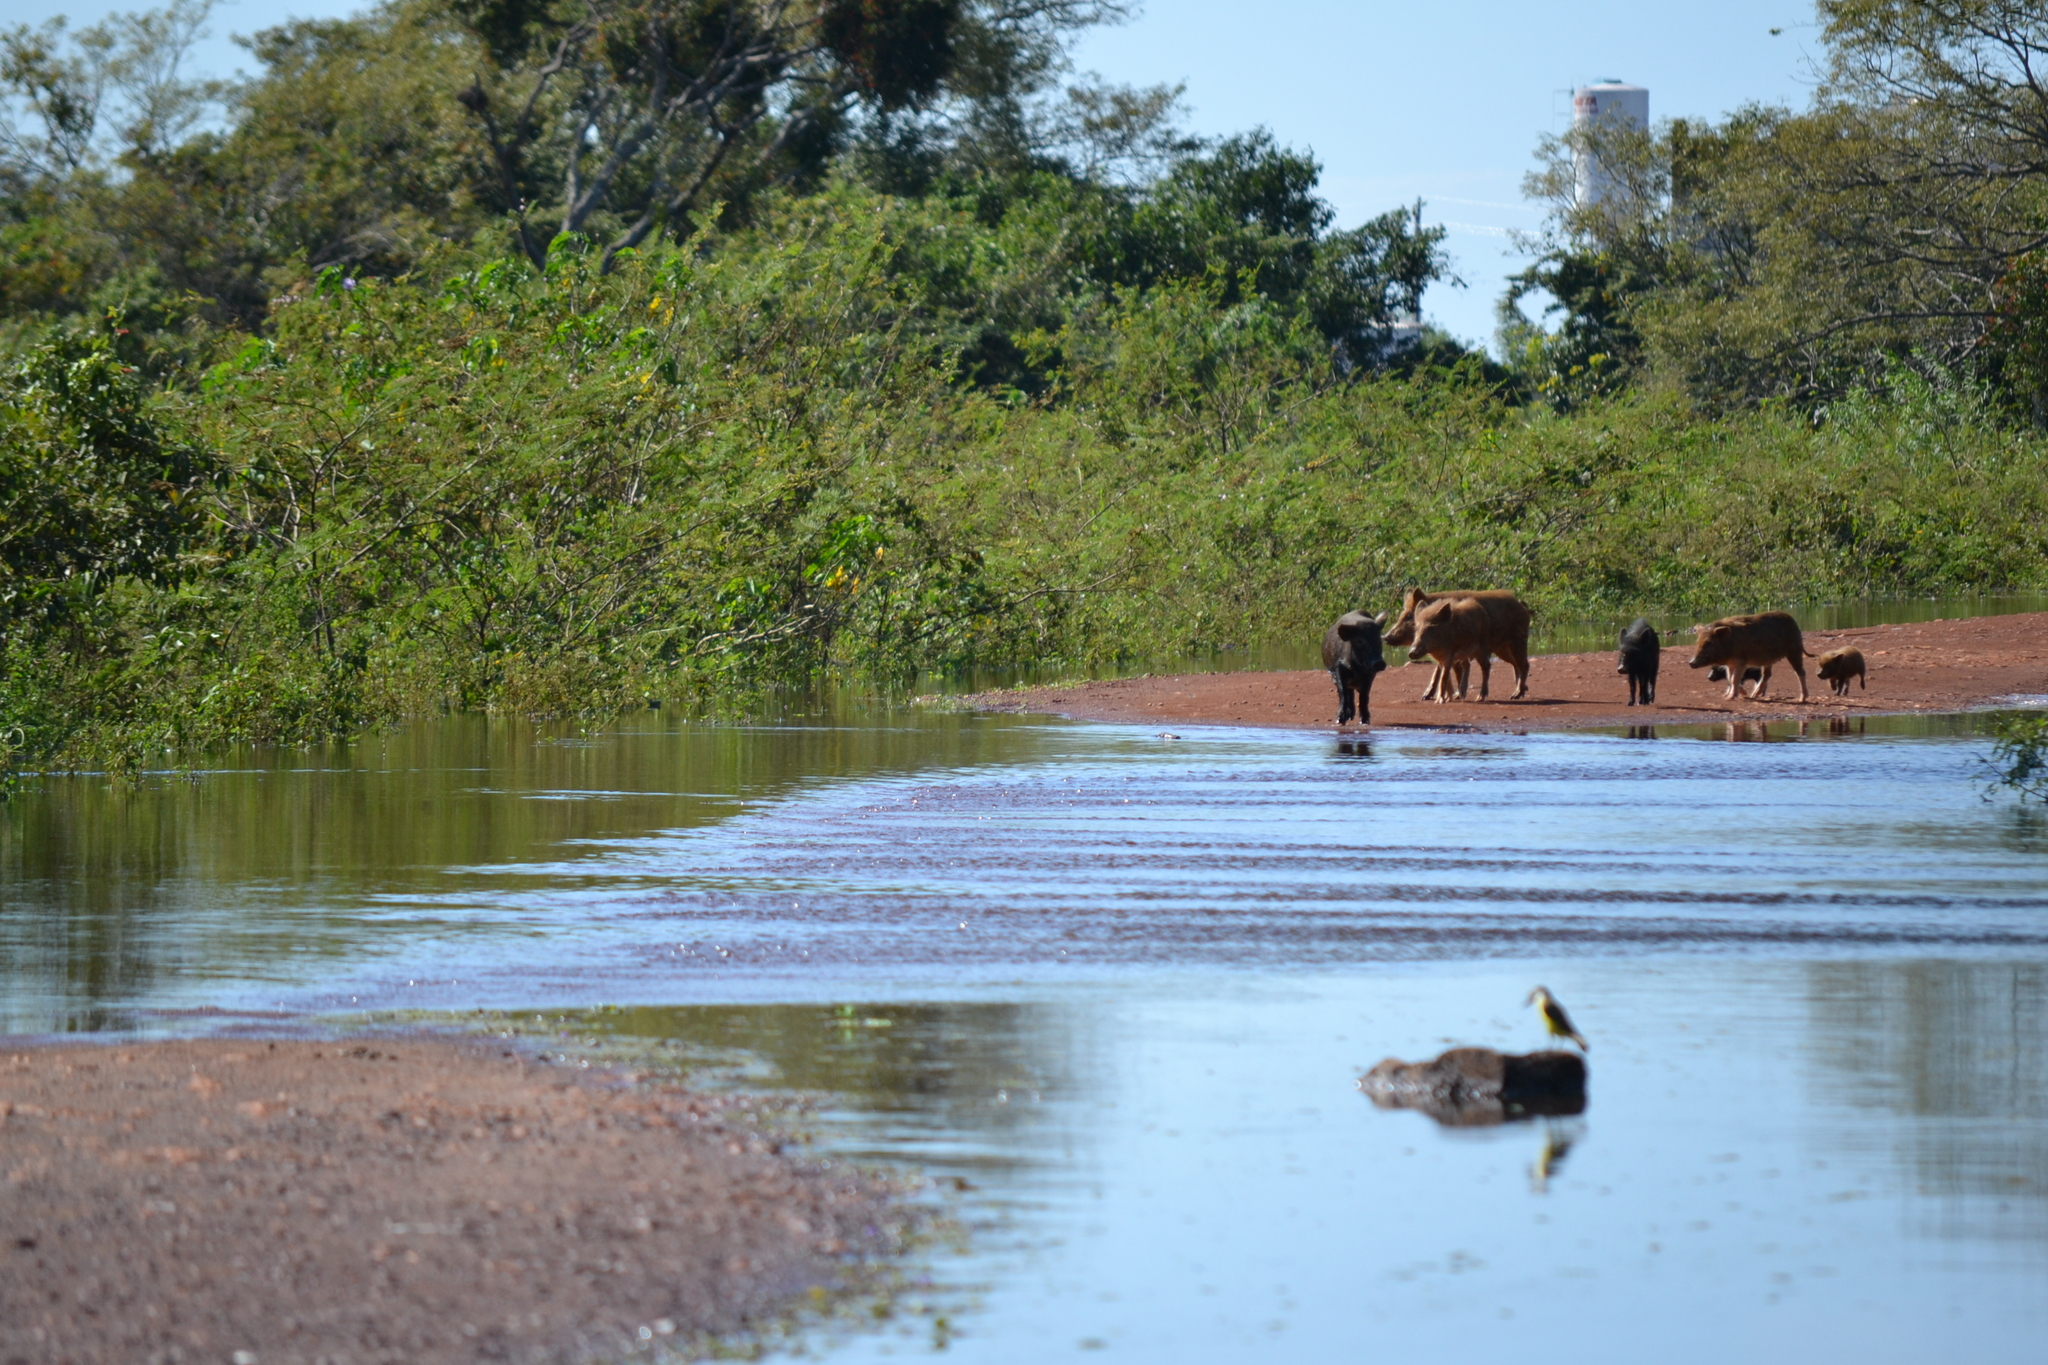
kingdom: Animalia
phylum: Chordata
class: Mammalia
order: Artiodactyla
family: Suidae
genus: Sus
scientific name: Sus scrofa
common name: Wild boar
